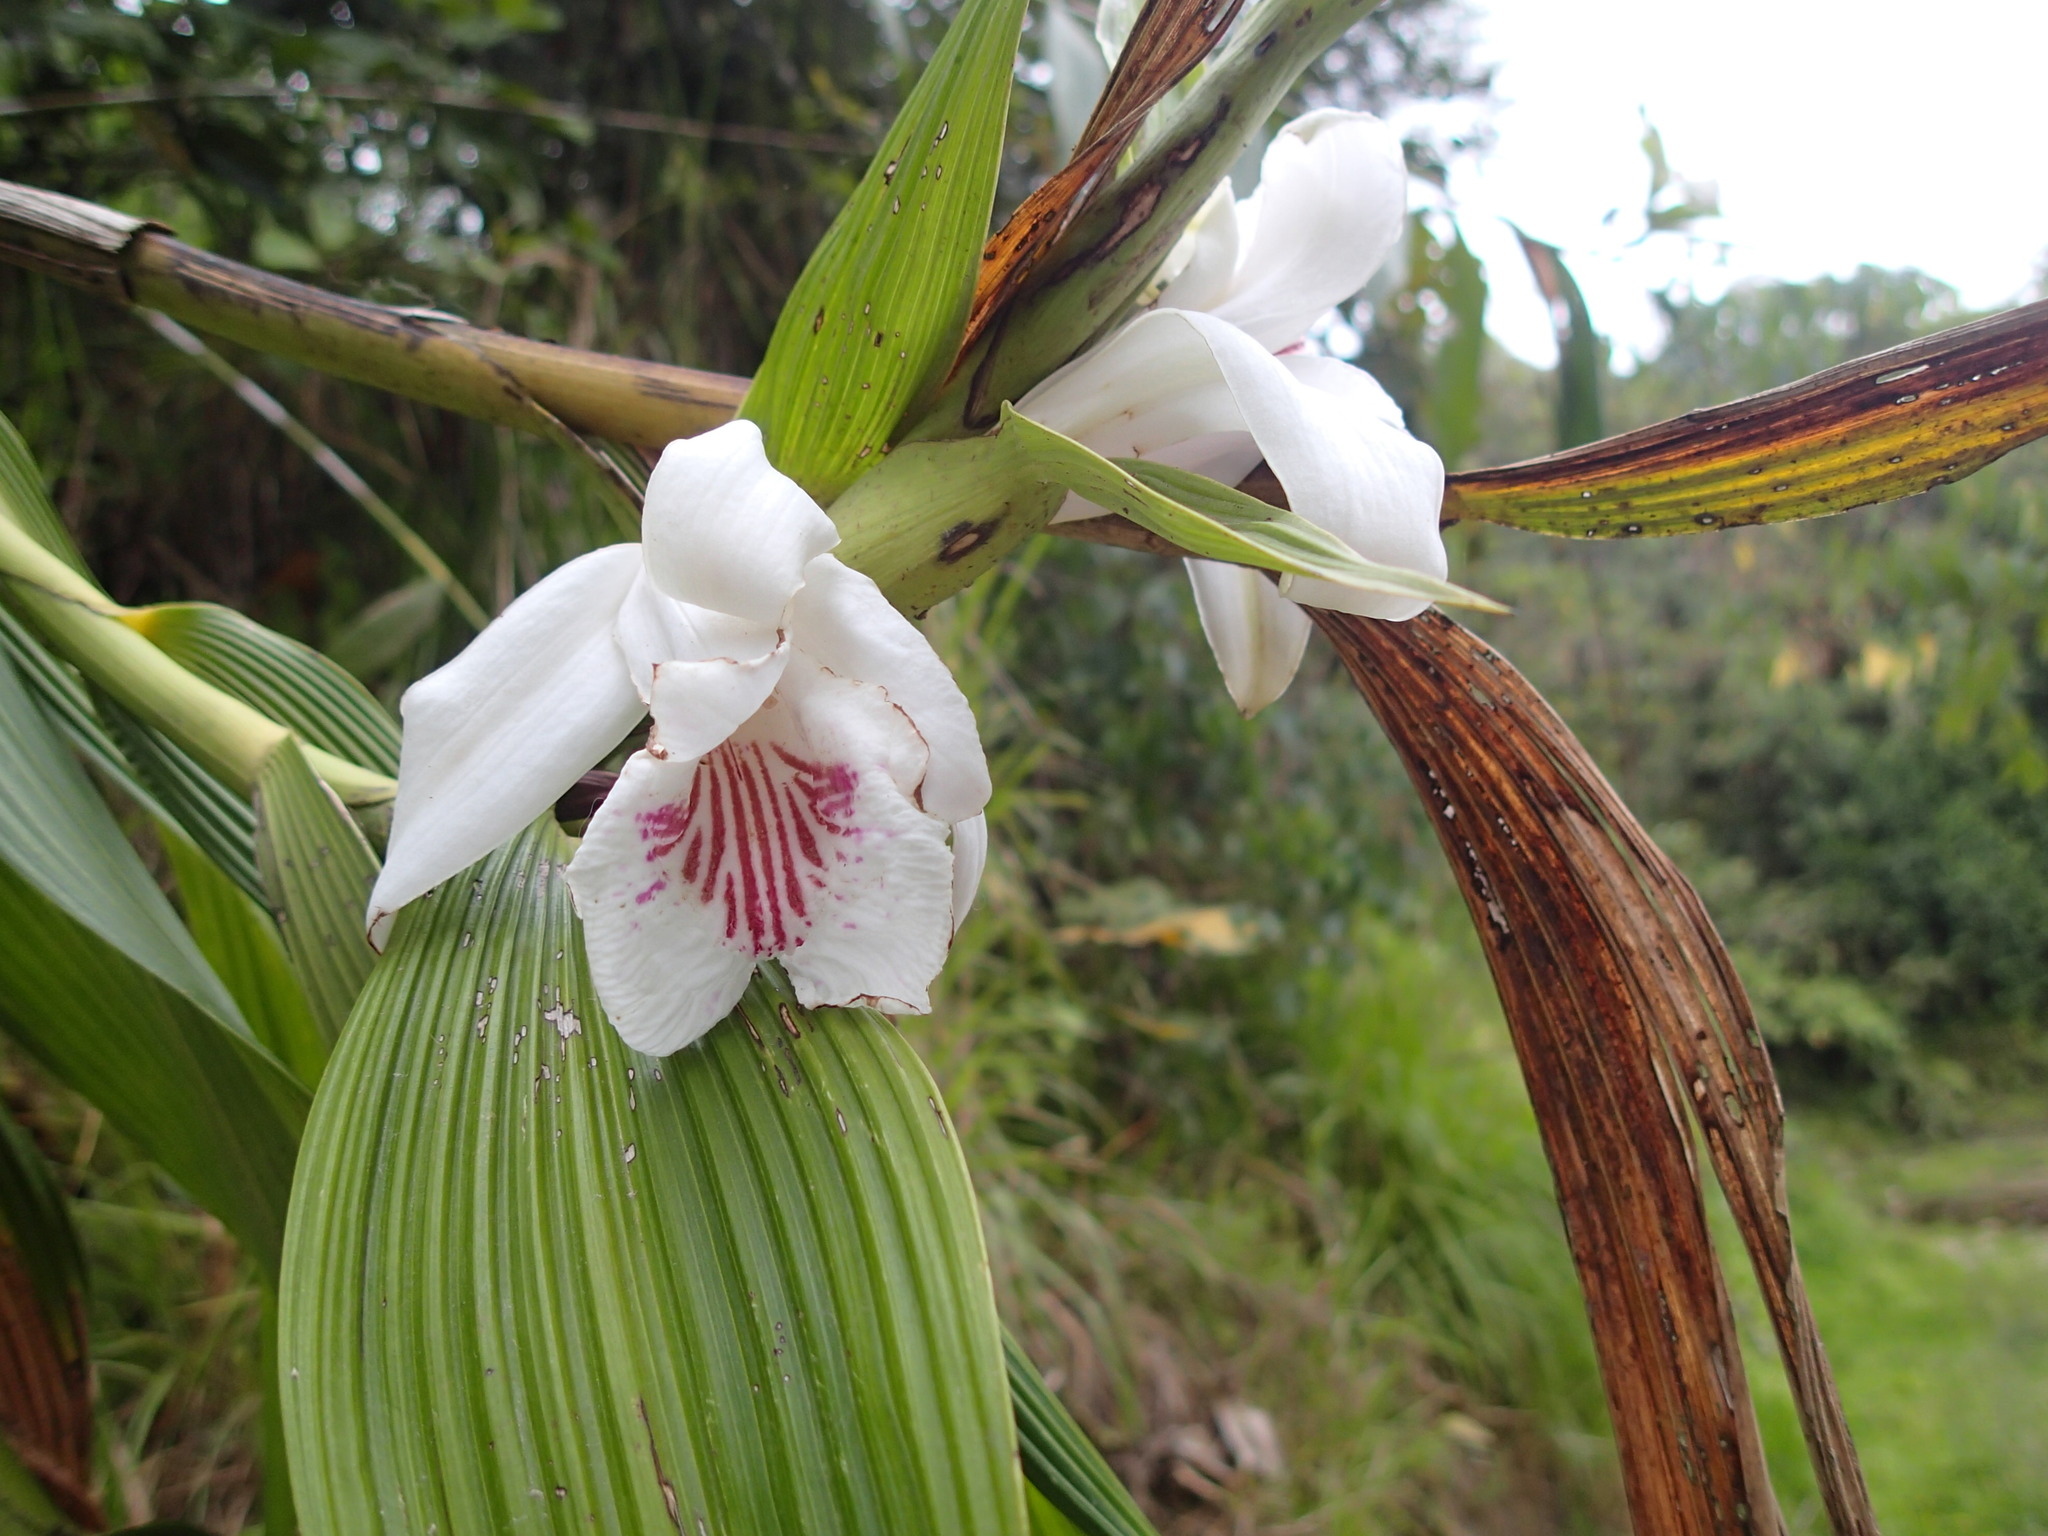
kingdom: Plantae
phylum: Tracheophyta
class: Liliopsida
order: Asparagales
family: Orchidaceae
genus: Sobralia
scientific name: Sobralia pulcherrima
